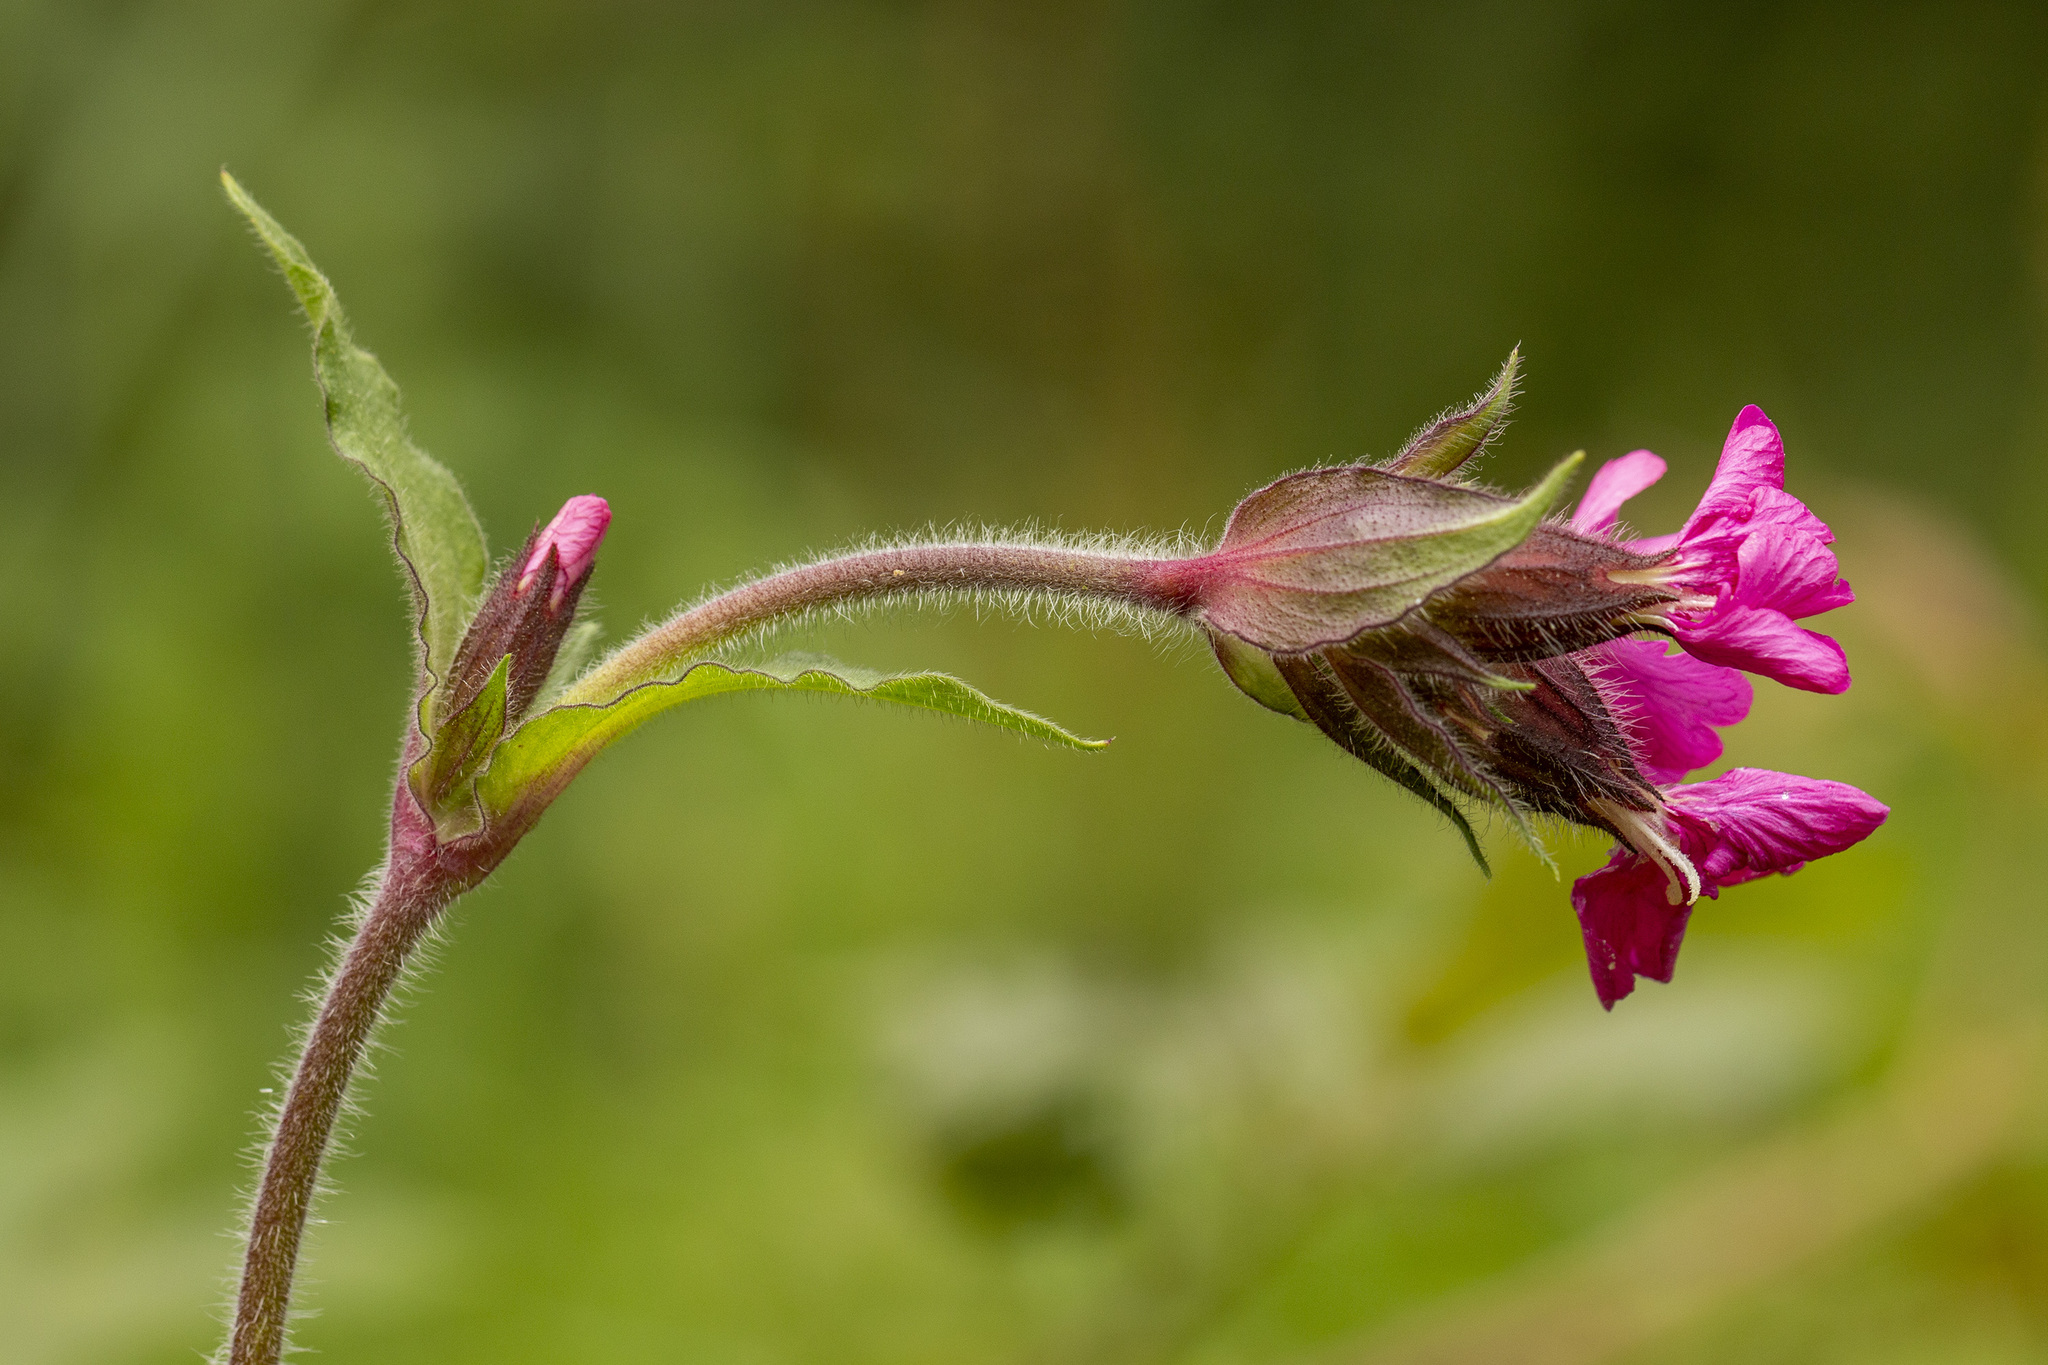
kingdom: Plantae
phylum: Tracheophyta
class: Magnoliopsida
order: Caryophyllales
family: Caryophyllaceae
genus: Silene
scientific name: Silene dioica
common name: Red campion
